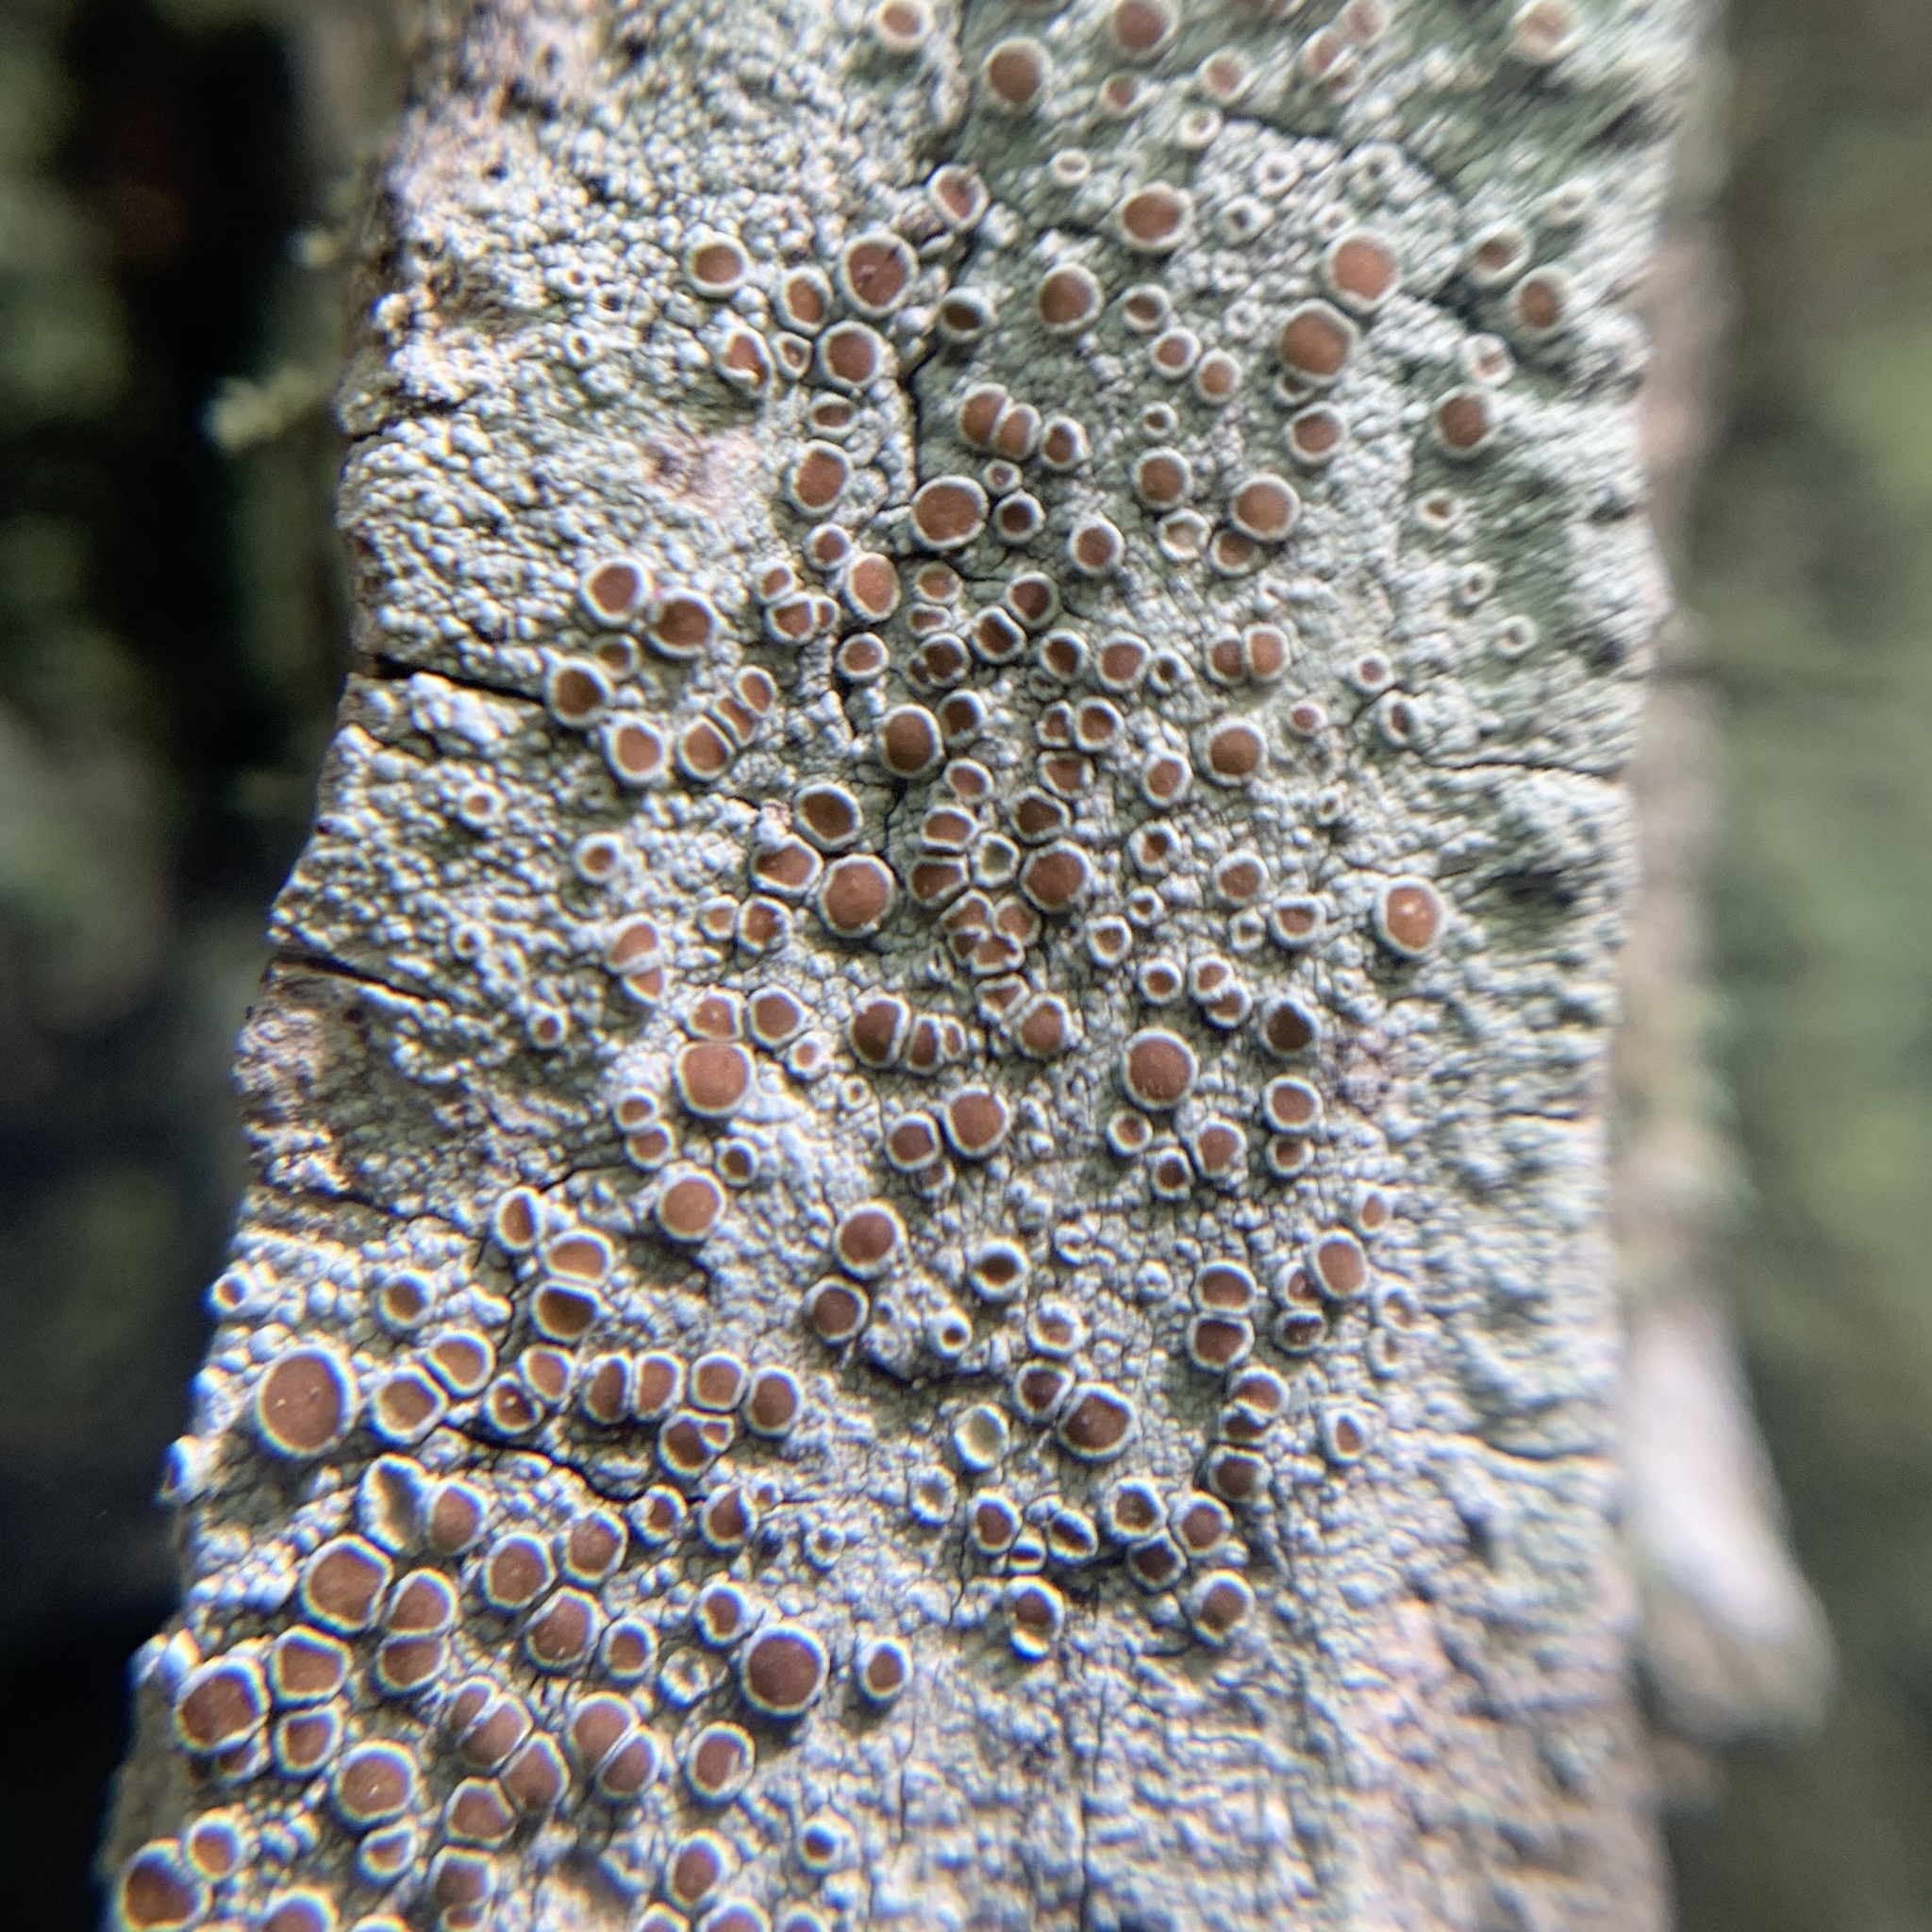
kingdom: Fungi
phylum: Ascomycota
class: Lecanoromycetes
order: Lecanorales
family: Lecanoraceae
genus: Lecanora
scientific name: Lecanora hybocarpa
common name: Bumpy rim-lichen
